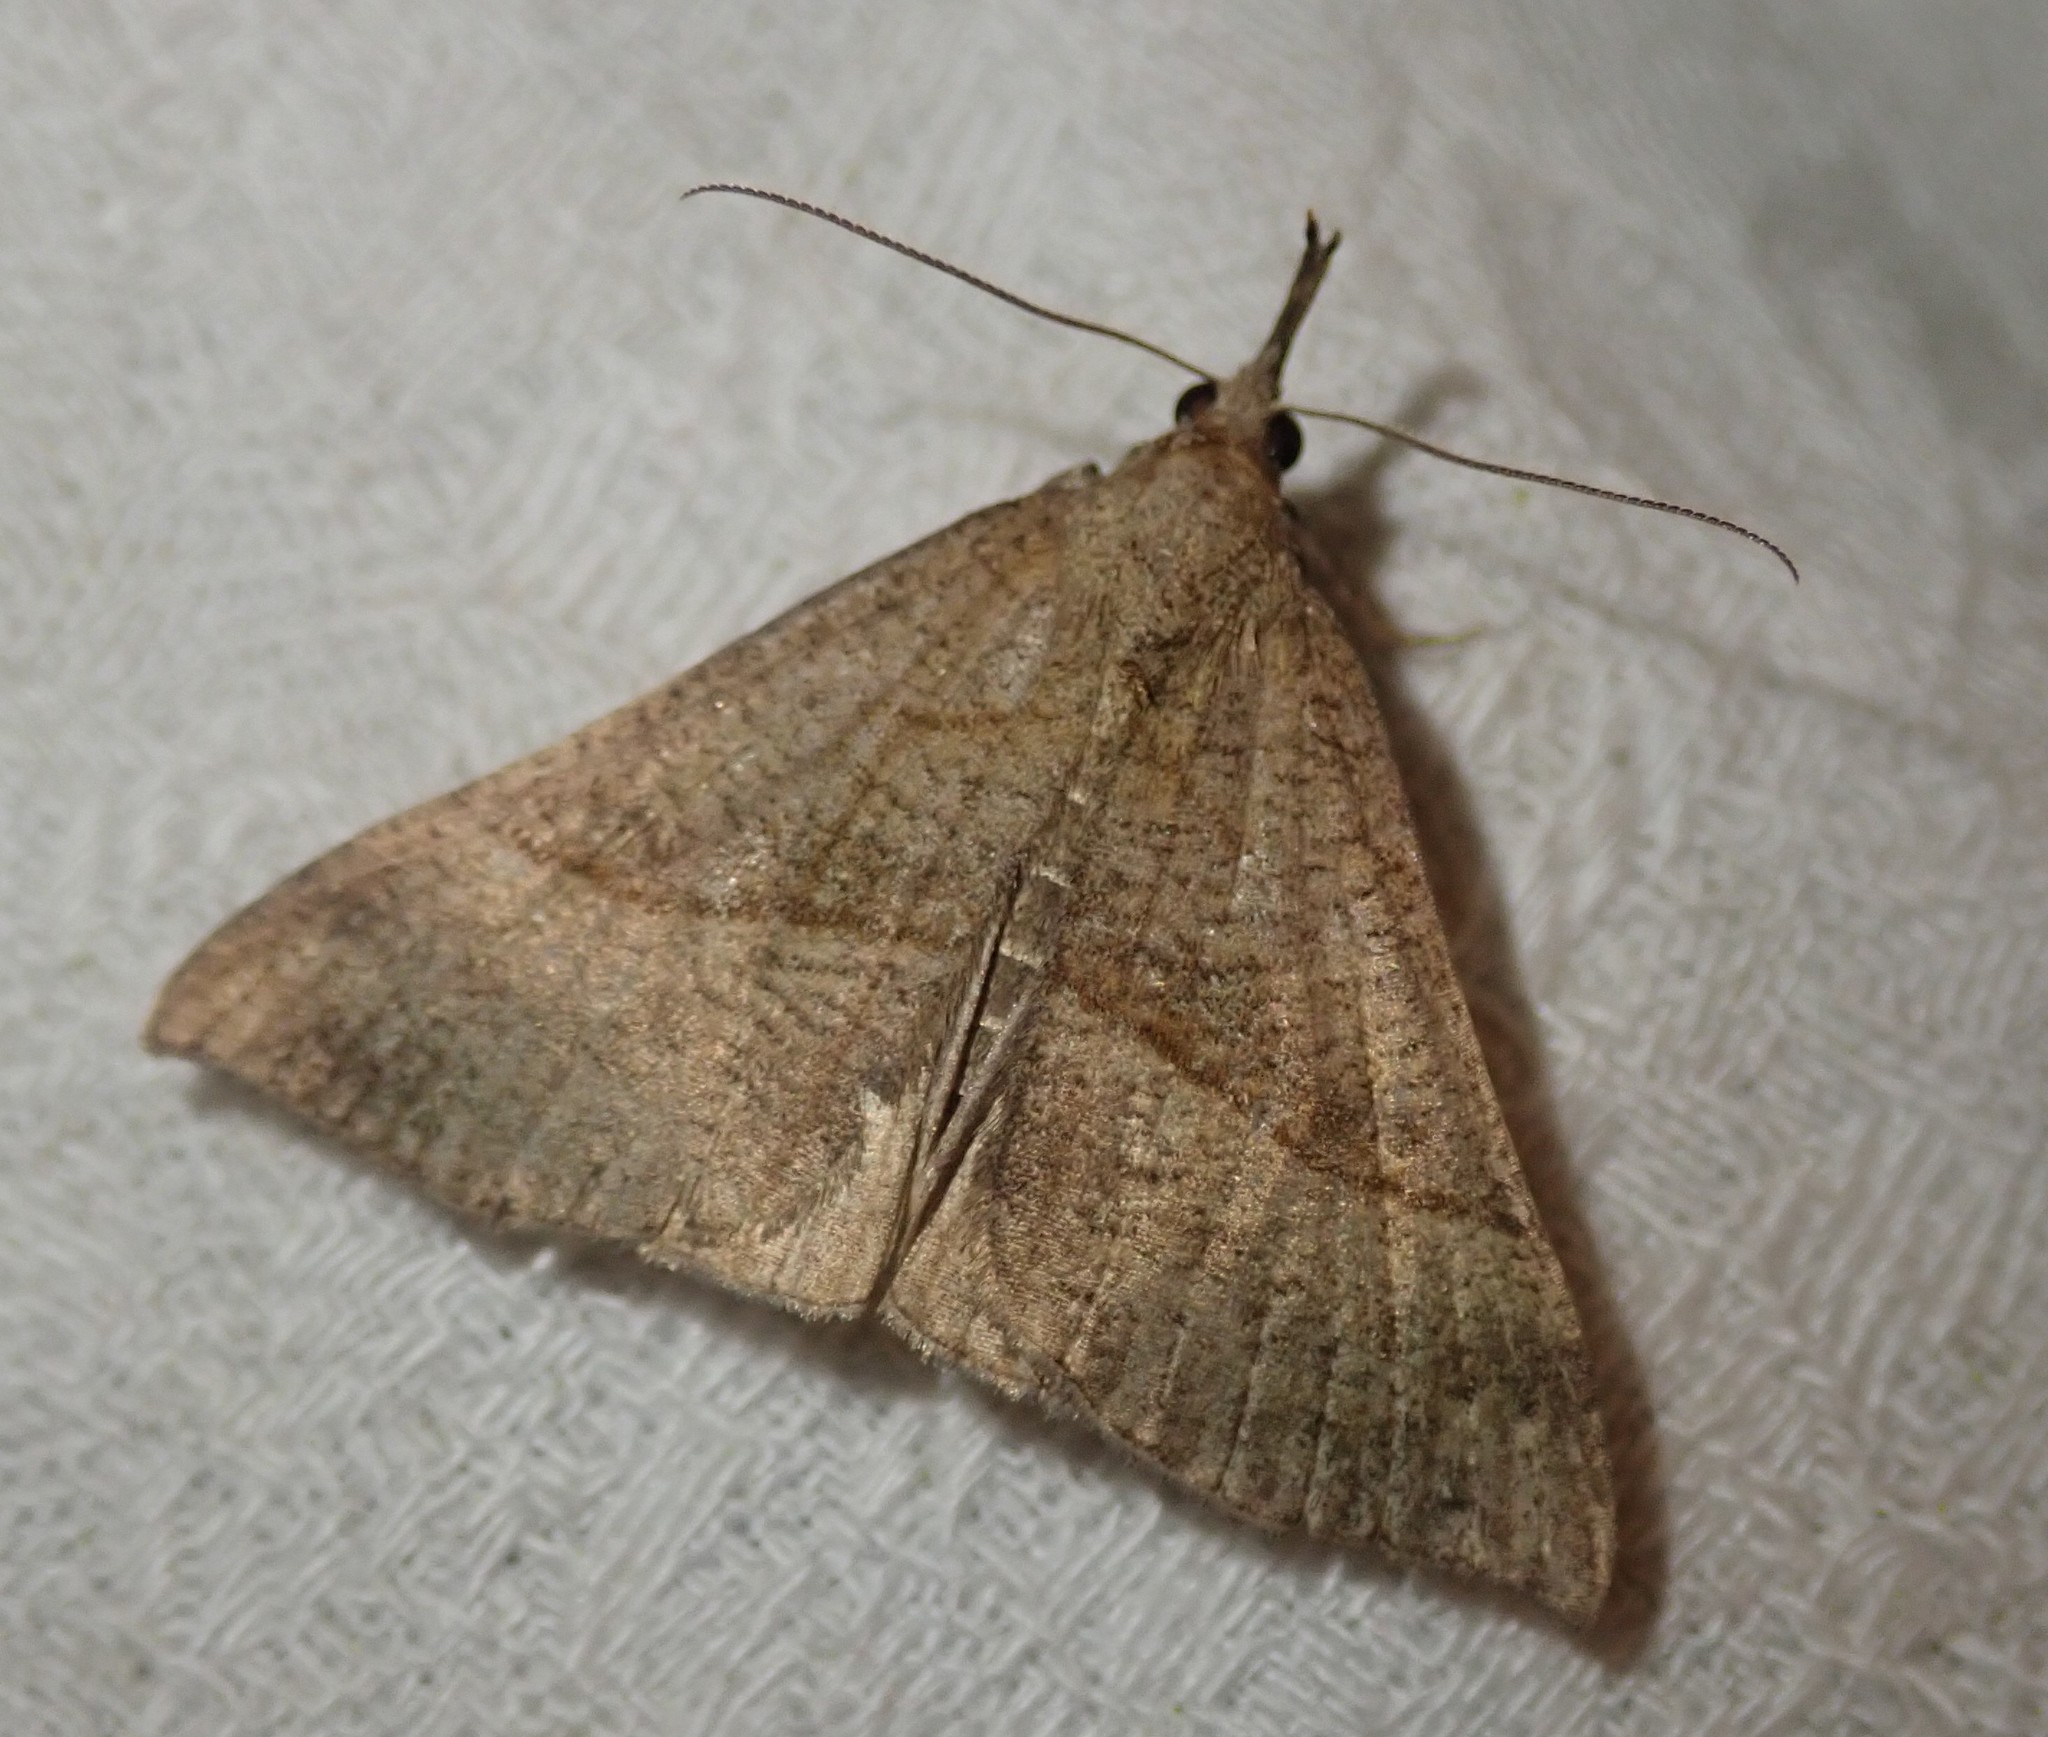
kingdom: Animalia
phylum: Arthropoda
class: Insecta
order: Lepidoptera
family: Erebidae
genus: Hypena
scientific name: Hypena proboscidalis
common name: Snout
